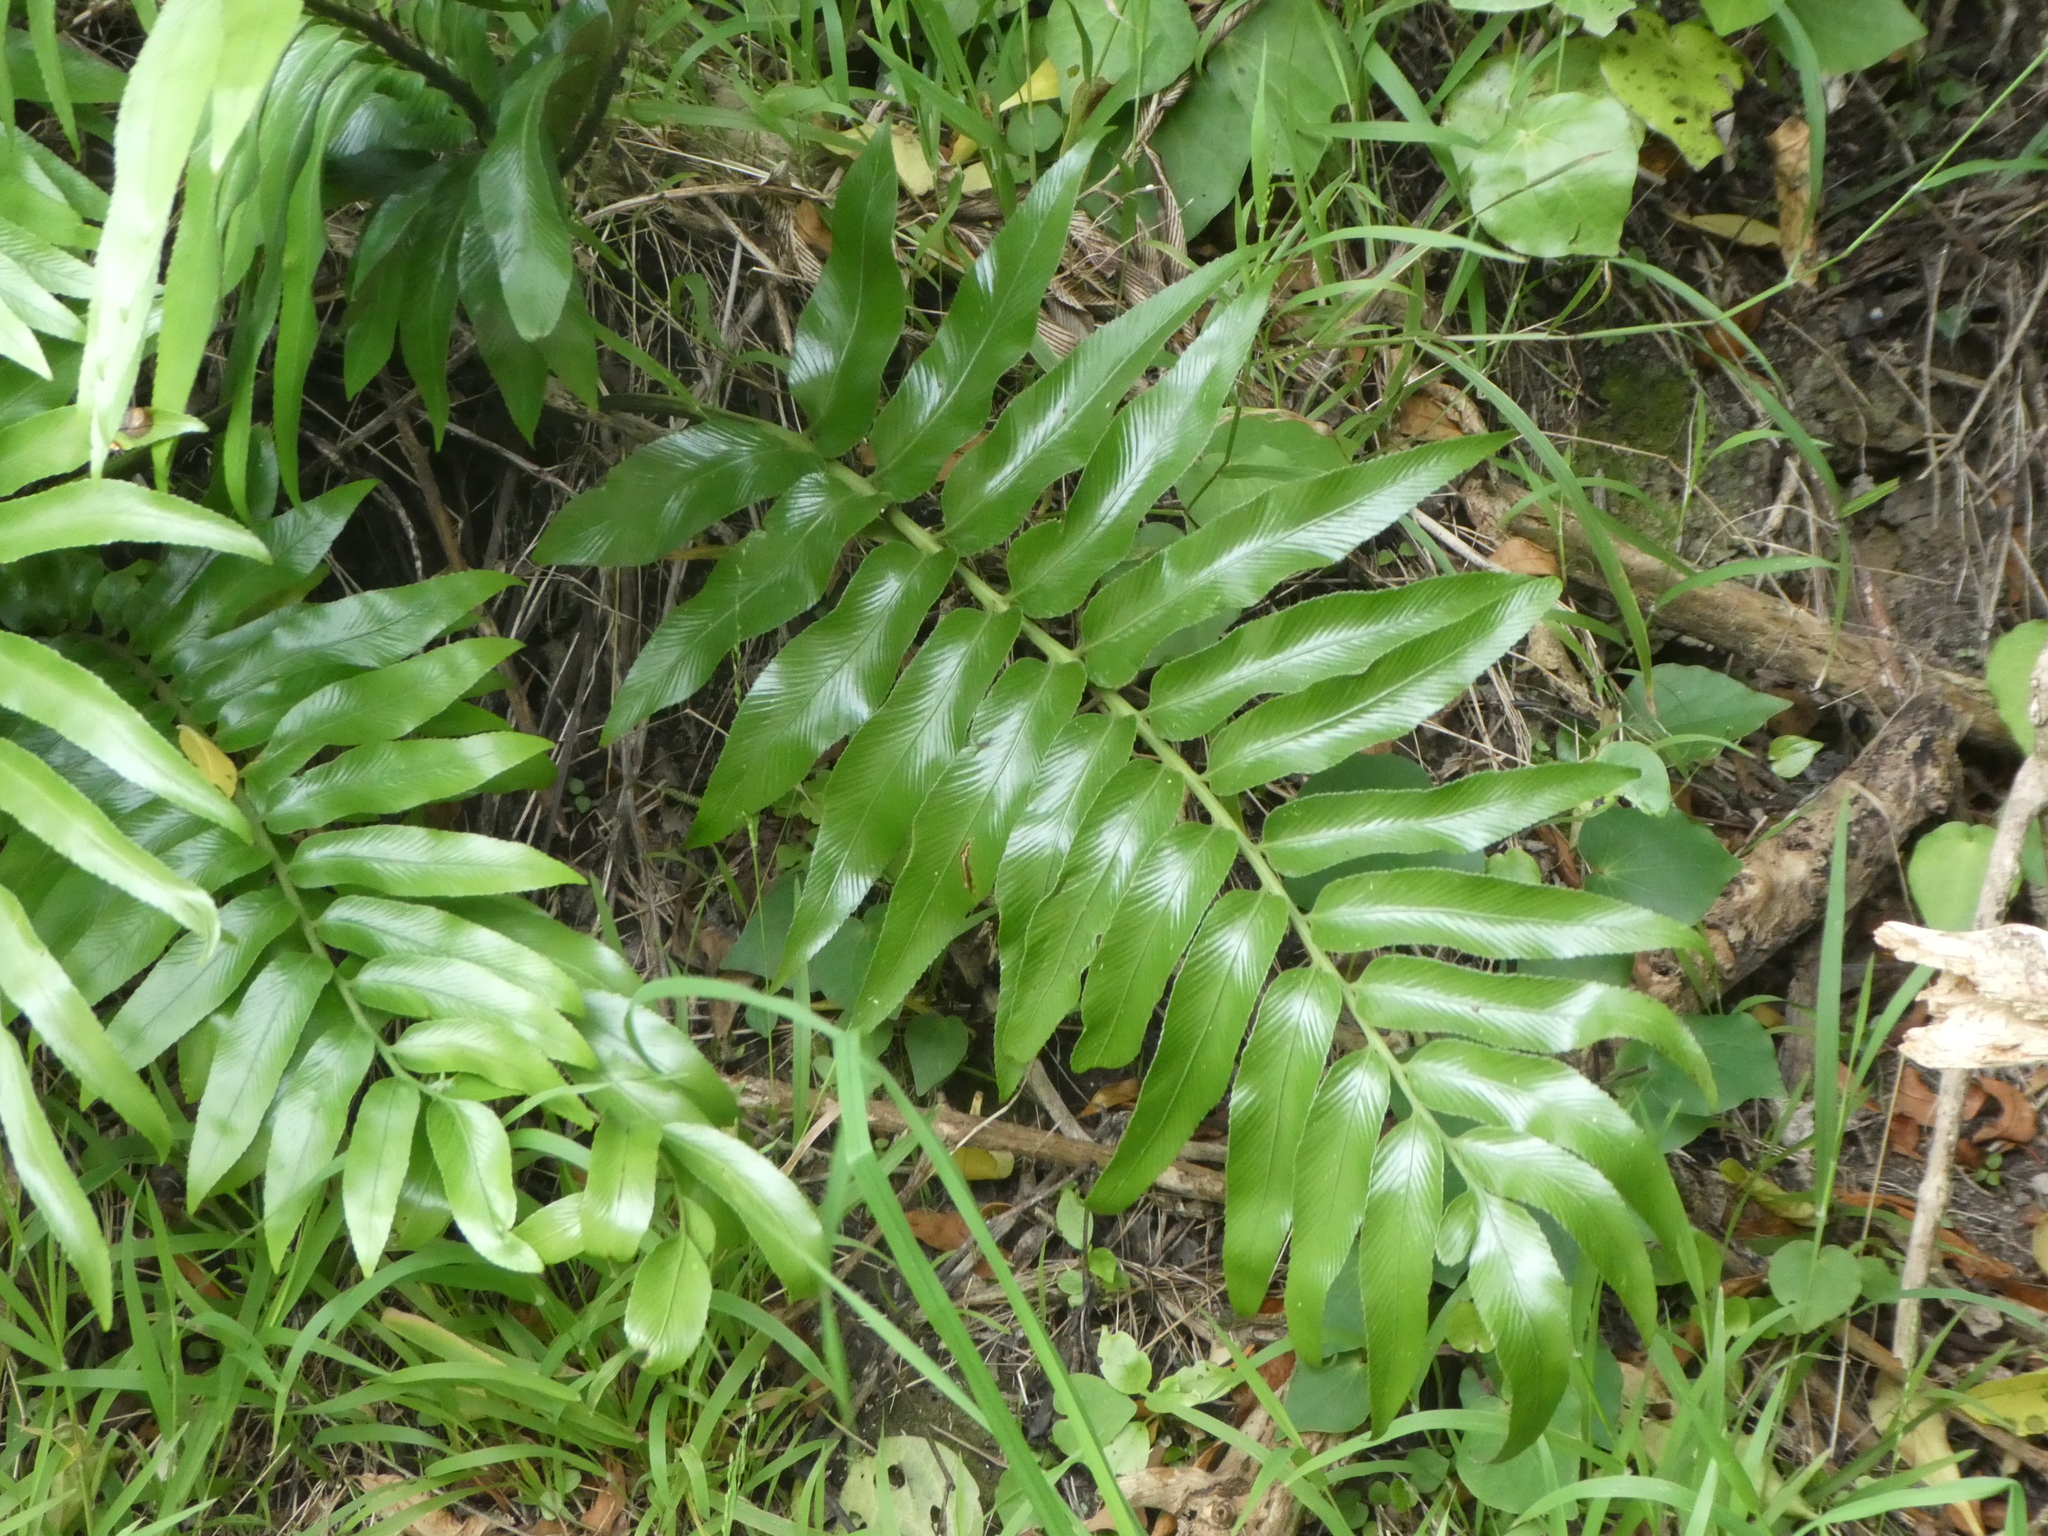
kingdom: Plantae
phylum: Tracheophyta
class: Polypodiopsida
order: Polypodiales
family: Aspleniaceae
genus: Asplenium
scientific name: Asplenium oblongifolium
